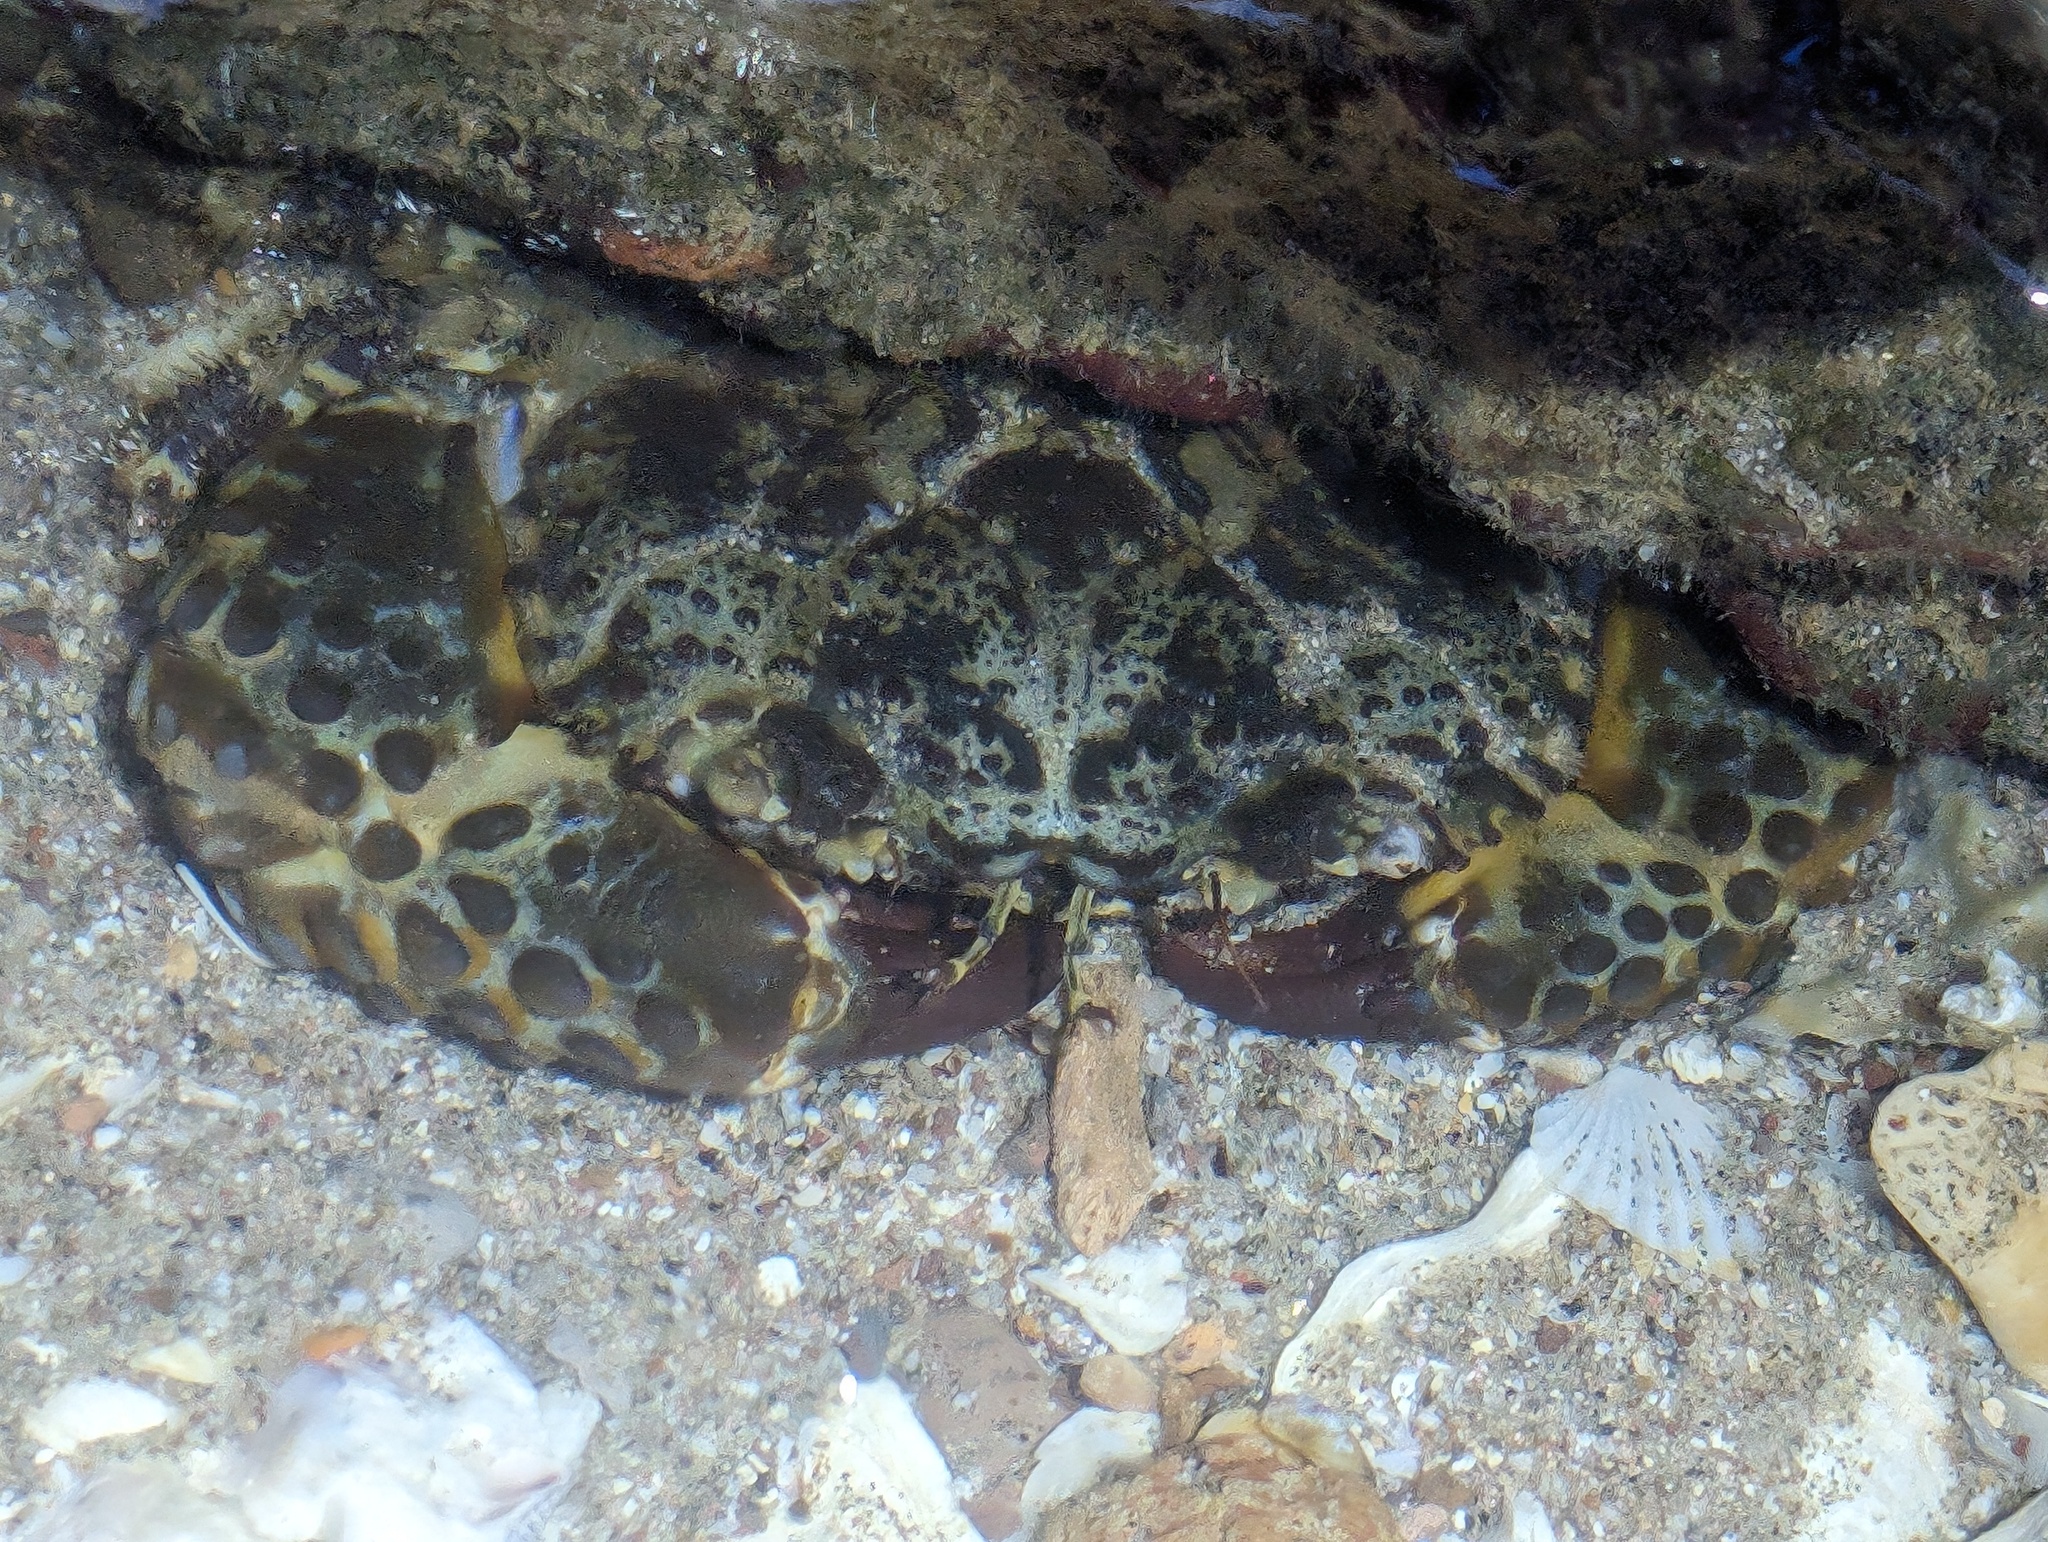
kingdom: Animalia
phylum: Arthropoda
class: Malacostraca
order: Decapoda
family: Eriphiidae
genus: Eriphia
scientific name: Eriphia squamata
